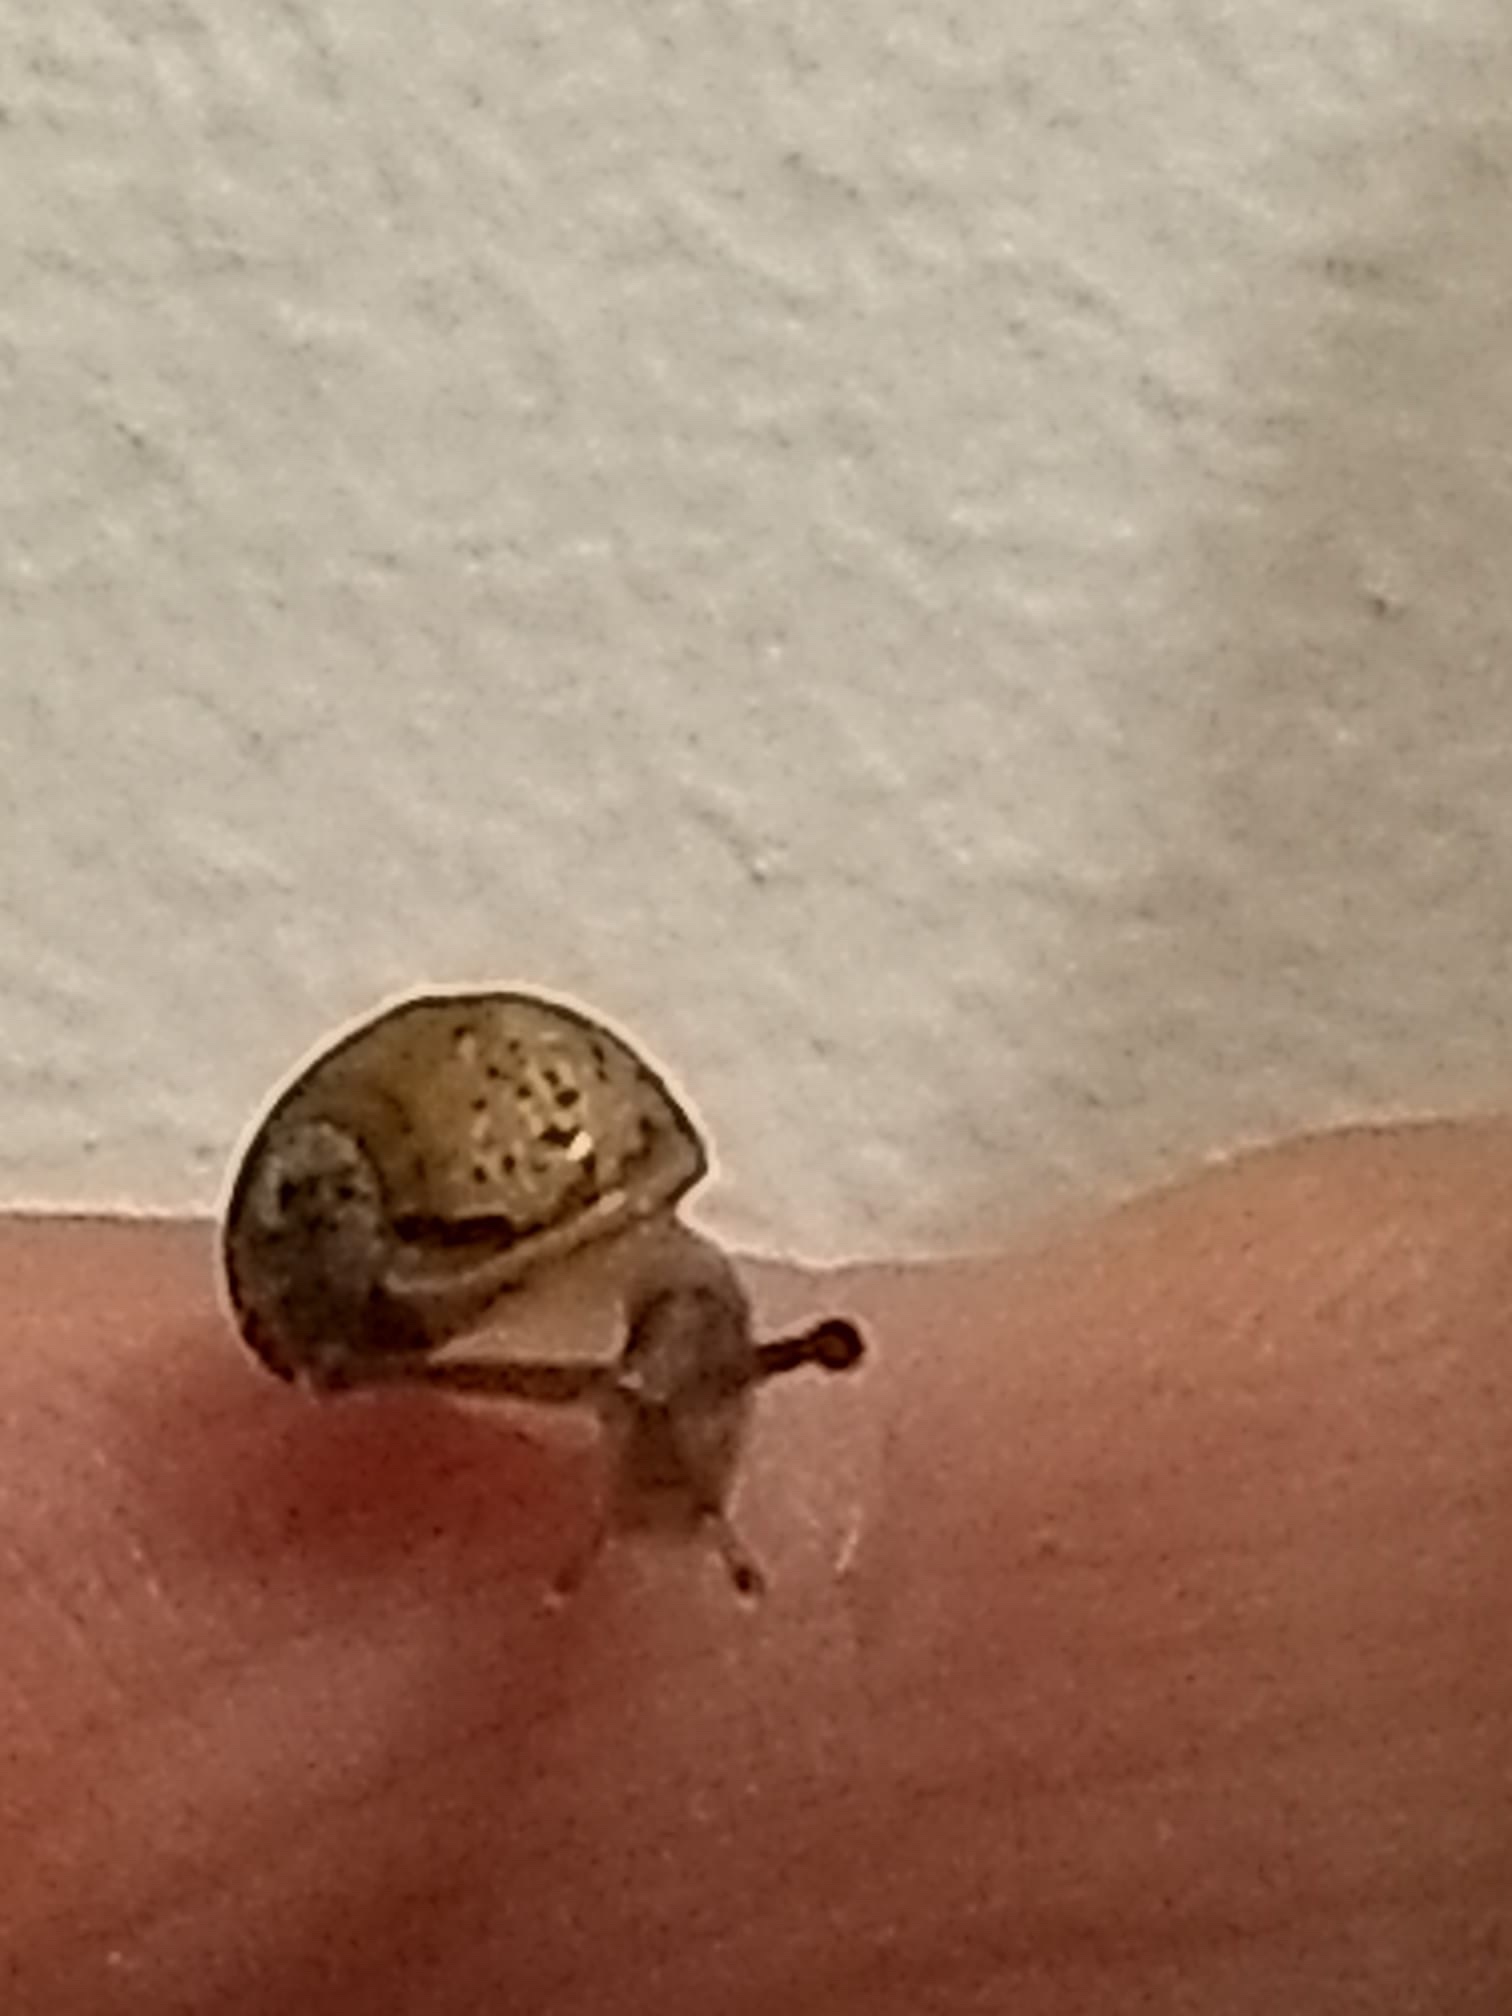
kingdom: Animalia
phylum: Mollusca
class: Gastropoda
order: Stylommatophora
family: Helicidae
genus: Cornu
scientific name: Cornu aspersum
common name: Brown garden snail
